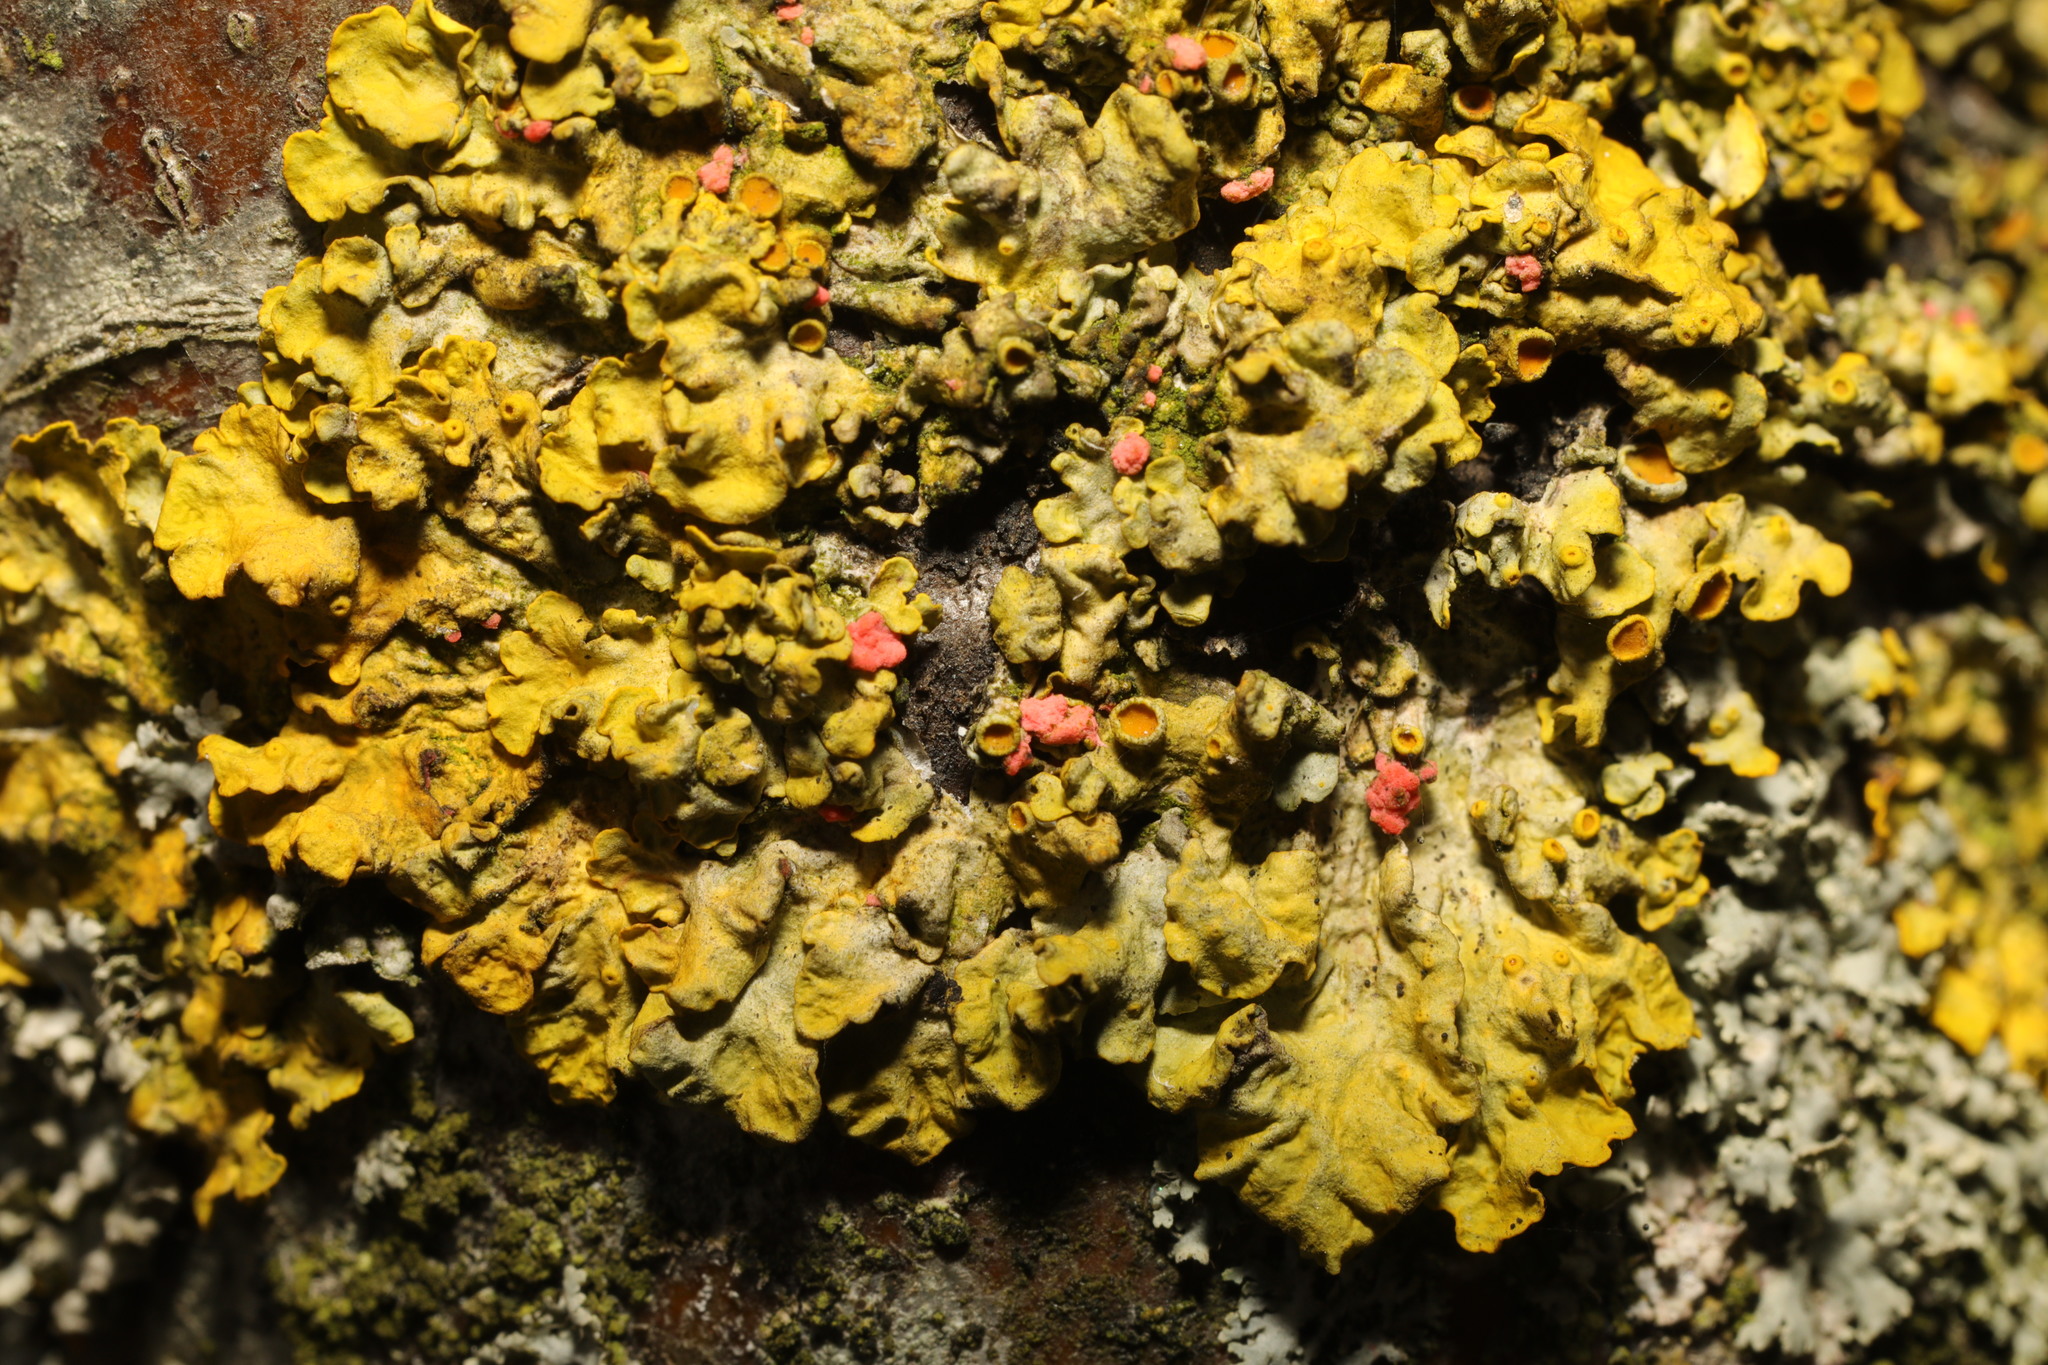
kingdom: Fungi
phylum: Ascomycota
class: Sordariomycetes
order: Hypocreales
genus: Illosporiopsis
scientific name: Illosporiopsis christiansenii
